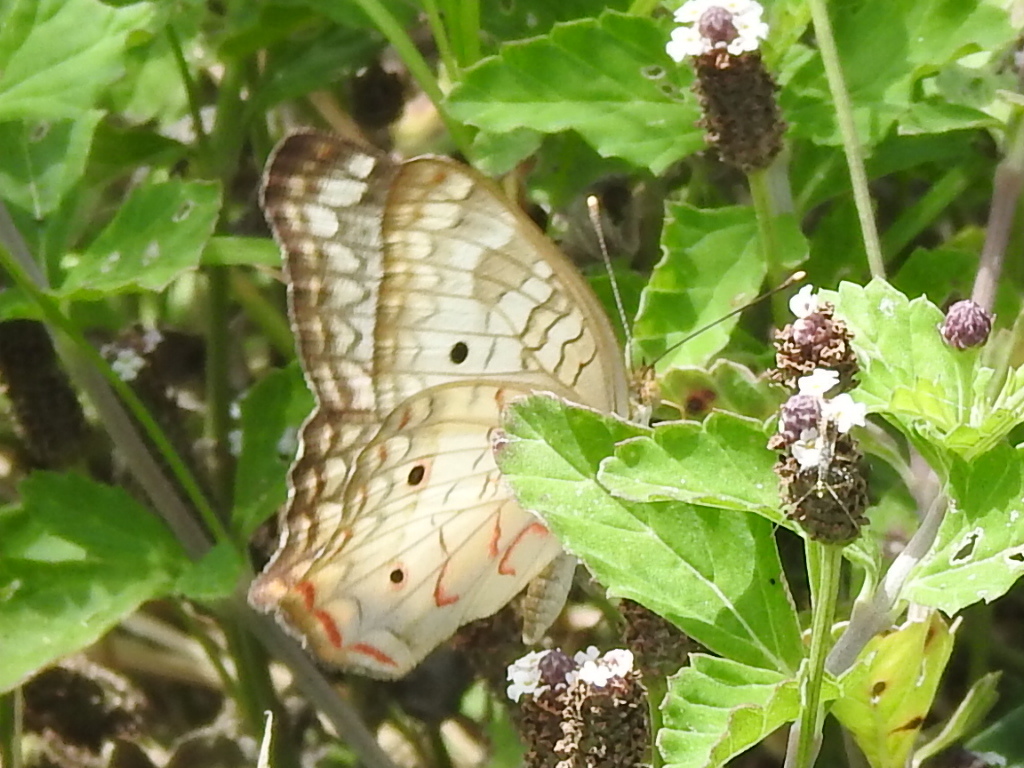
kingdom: Animalia
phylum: Arthropoda
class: Insecta
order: Lepidoptera
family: Nymphalidae
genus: Anartia
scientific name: Anartia jatrophae
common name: White peacock
